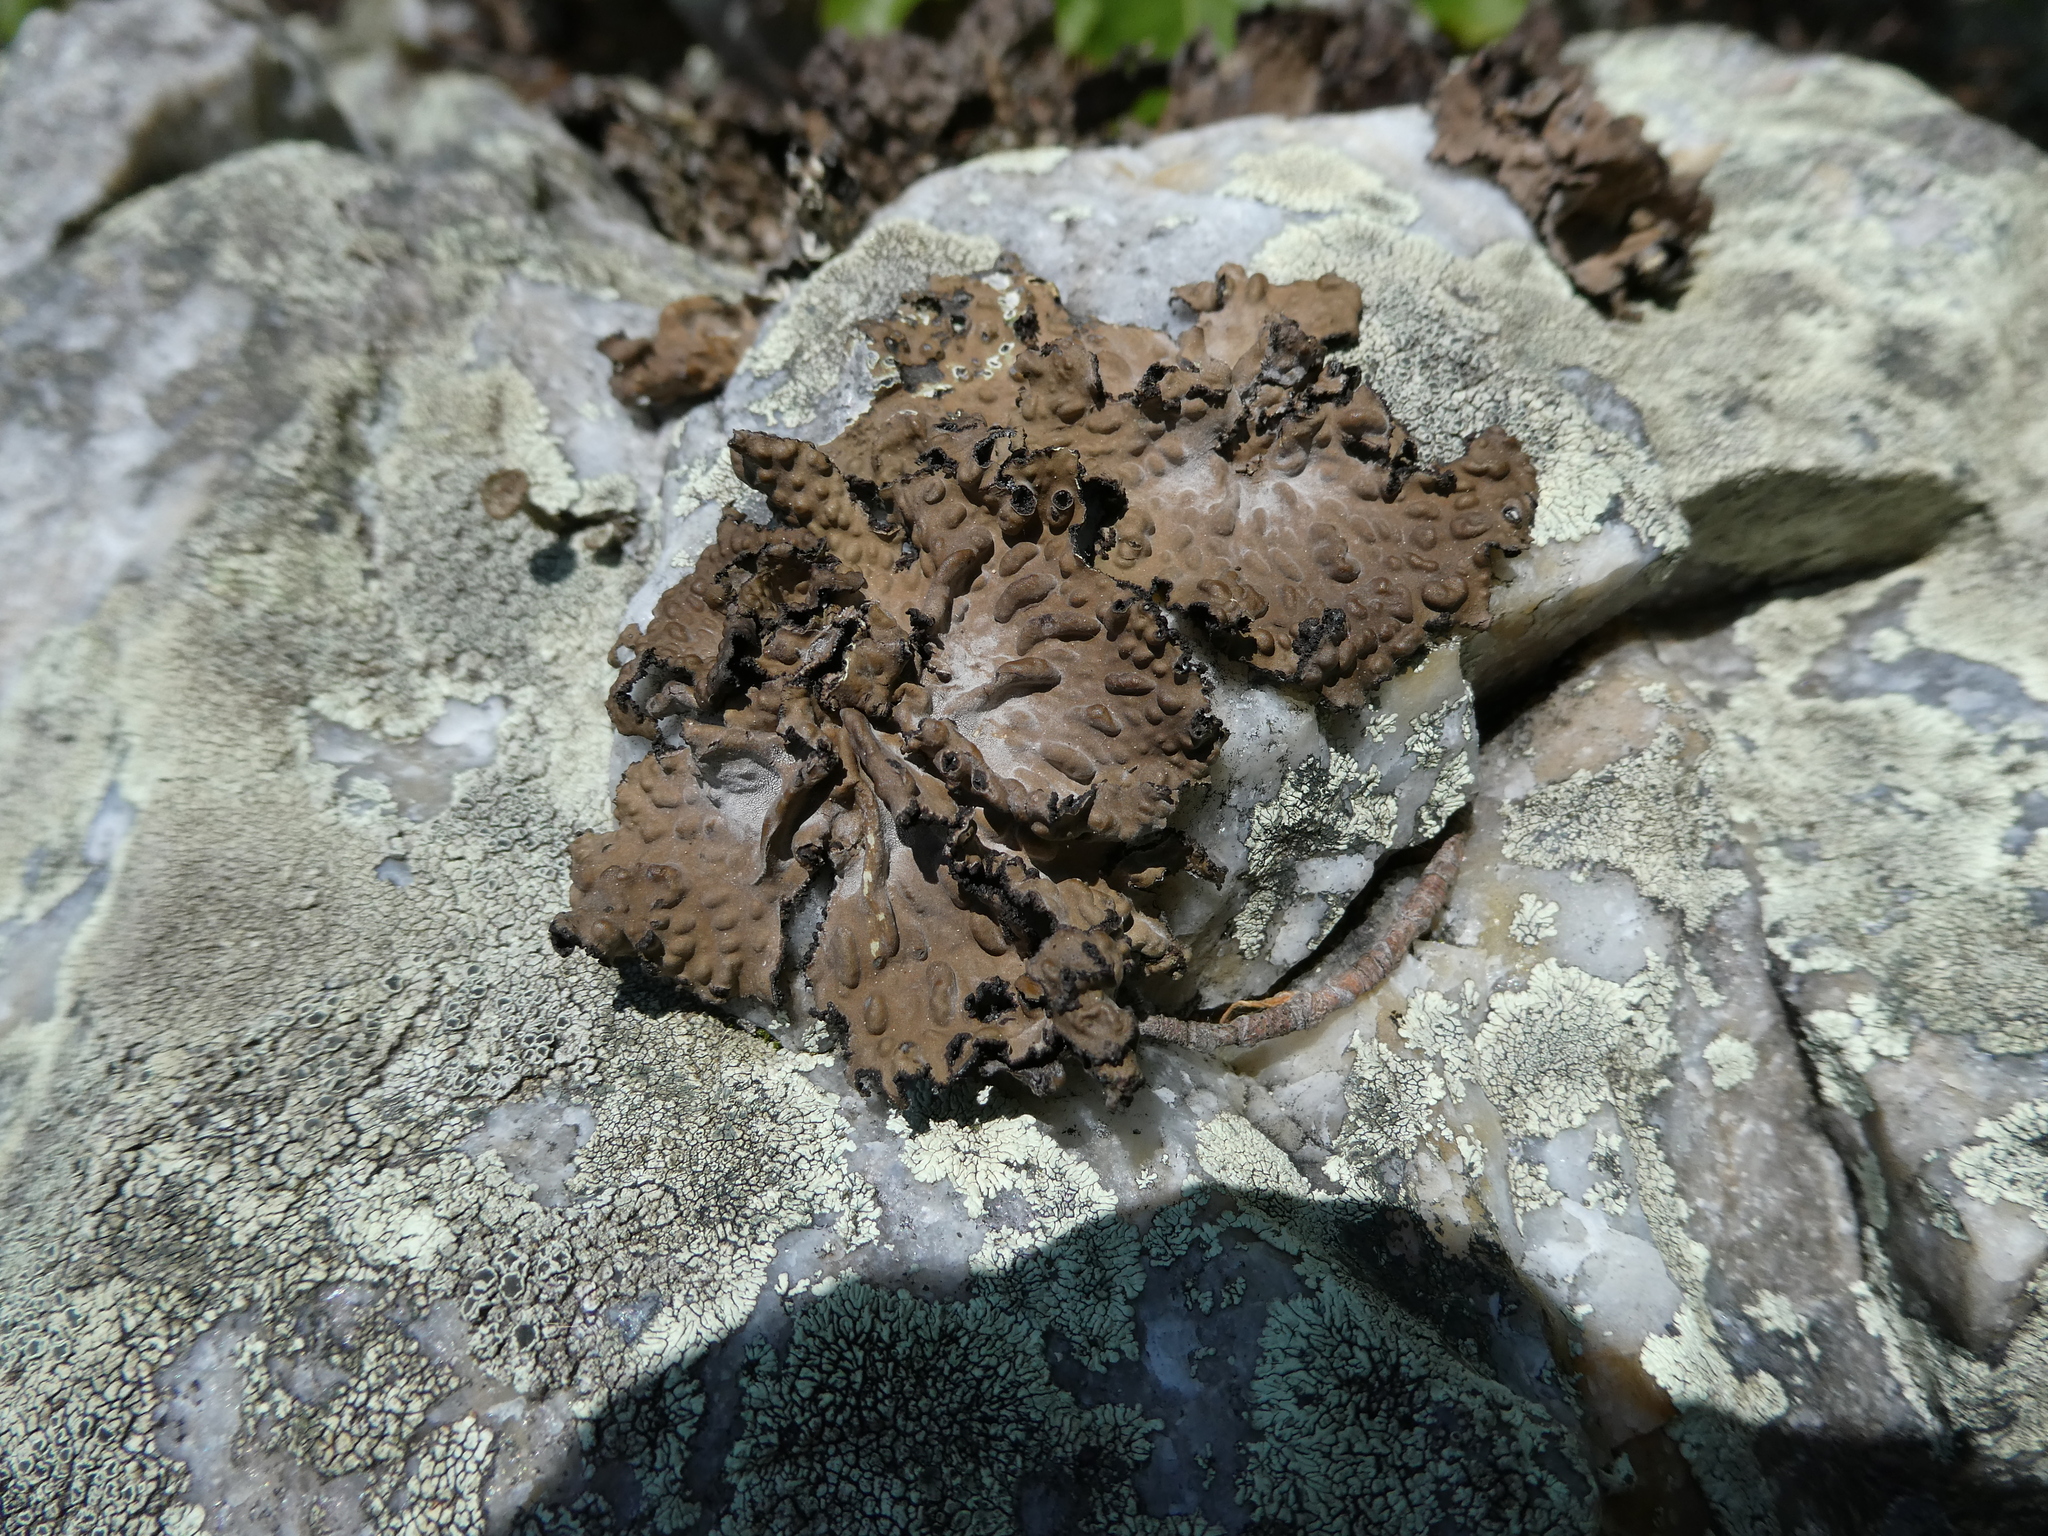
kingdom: Fungi
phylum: Ascomycota
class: Lecanoromycetes
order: Umbilicariales
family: Umbilicariaceae
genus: Lasallia
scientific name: Lasallia pensylvanica
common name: Blackened toadskin lichen
